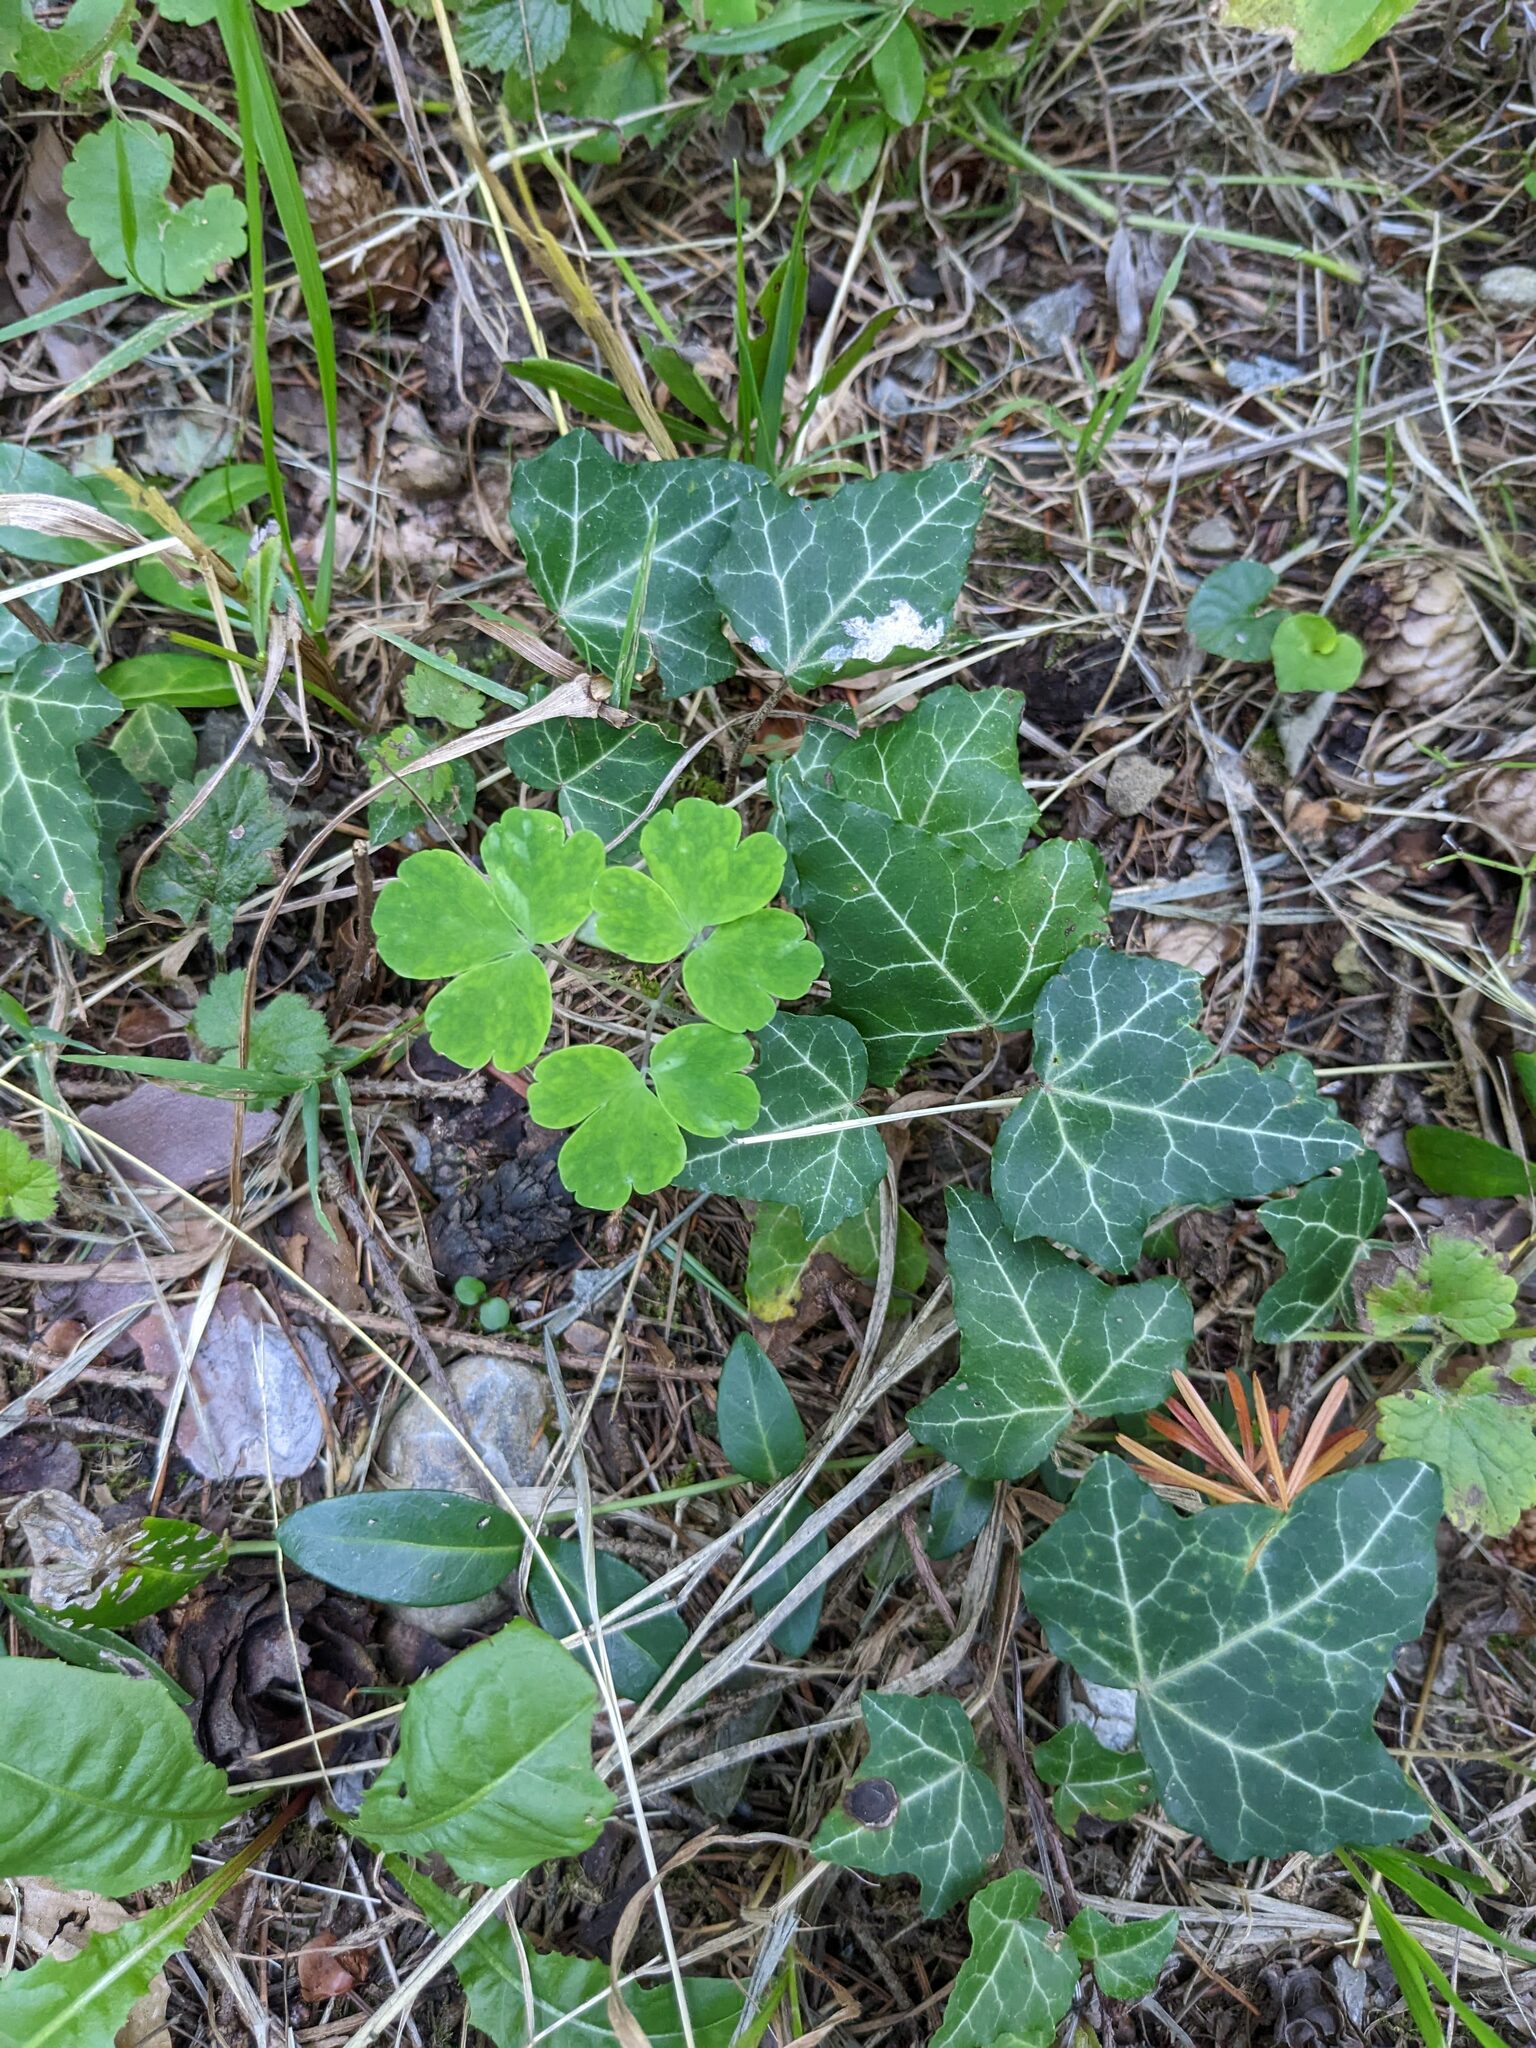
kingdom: Plantae
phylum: Tracheophyta
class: Magnoliopsida
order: Apiales
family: Araliaceae
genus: Hedera
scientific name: Hedera helix
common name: Ivy
